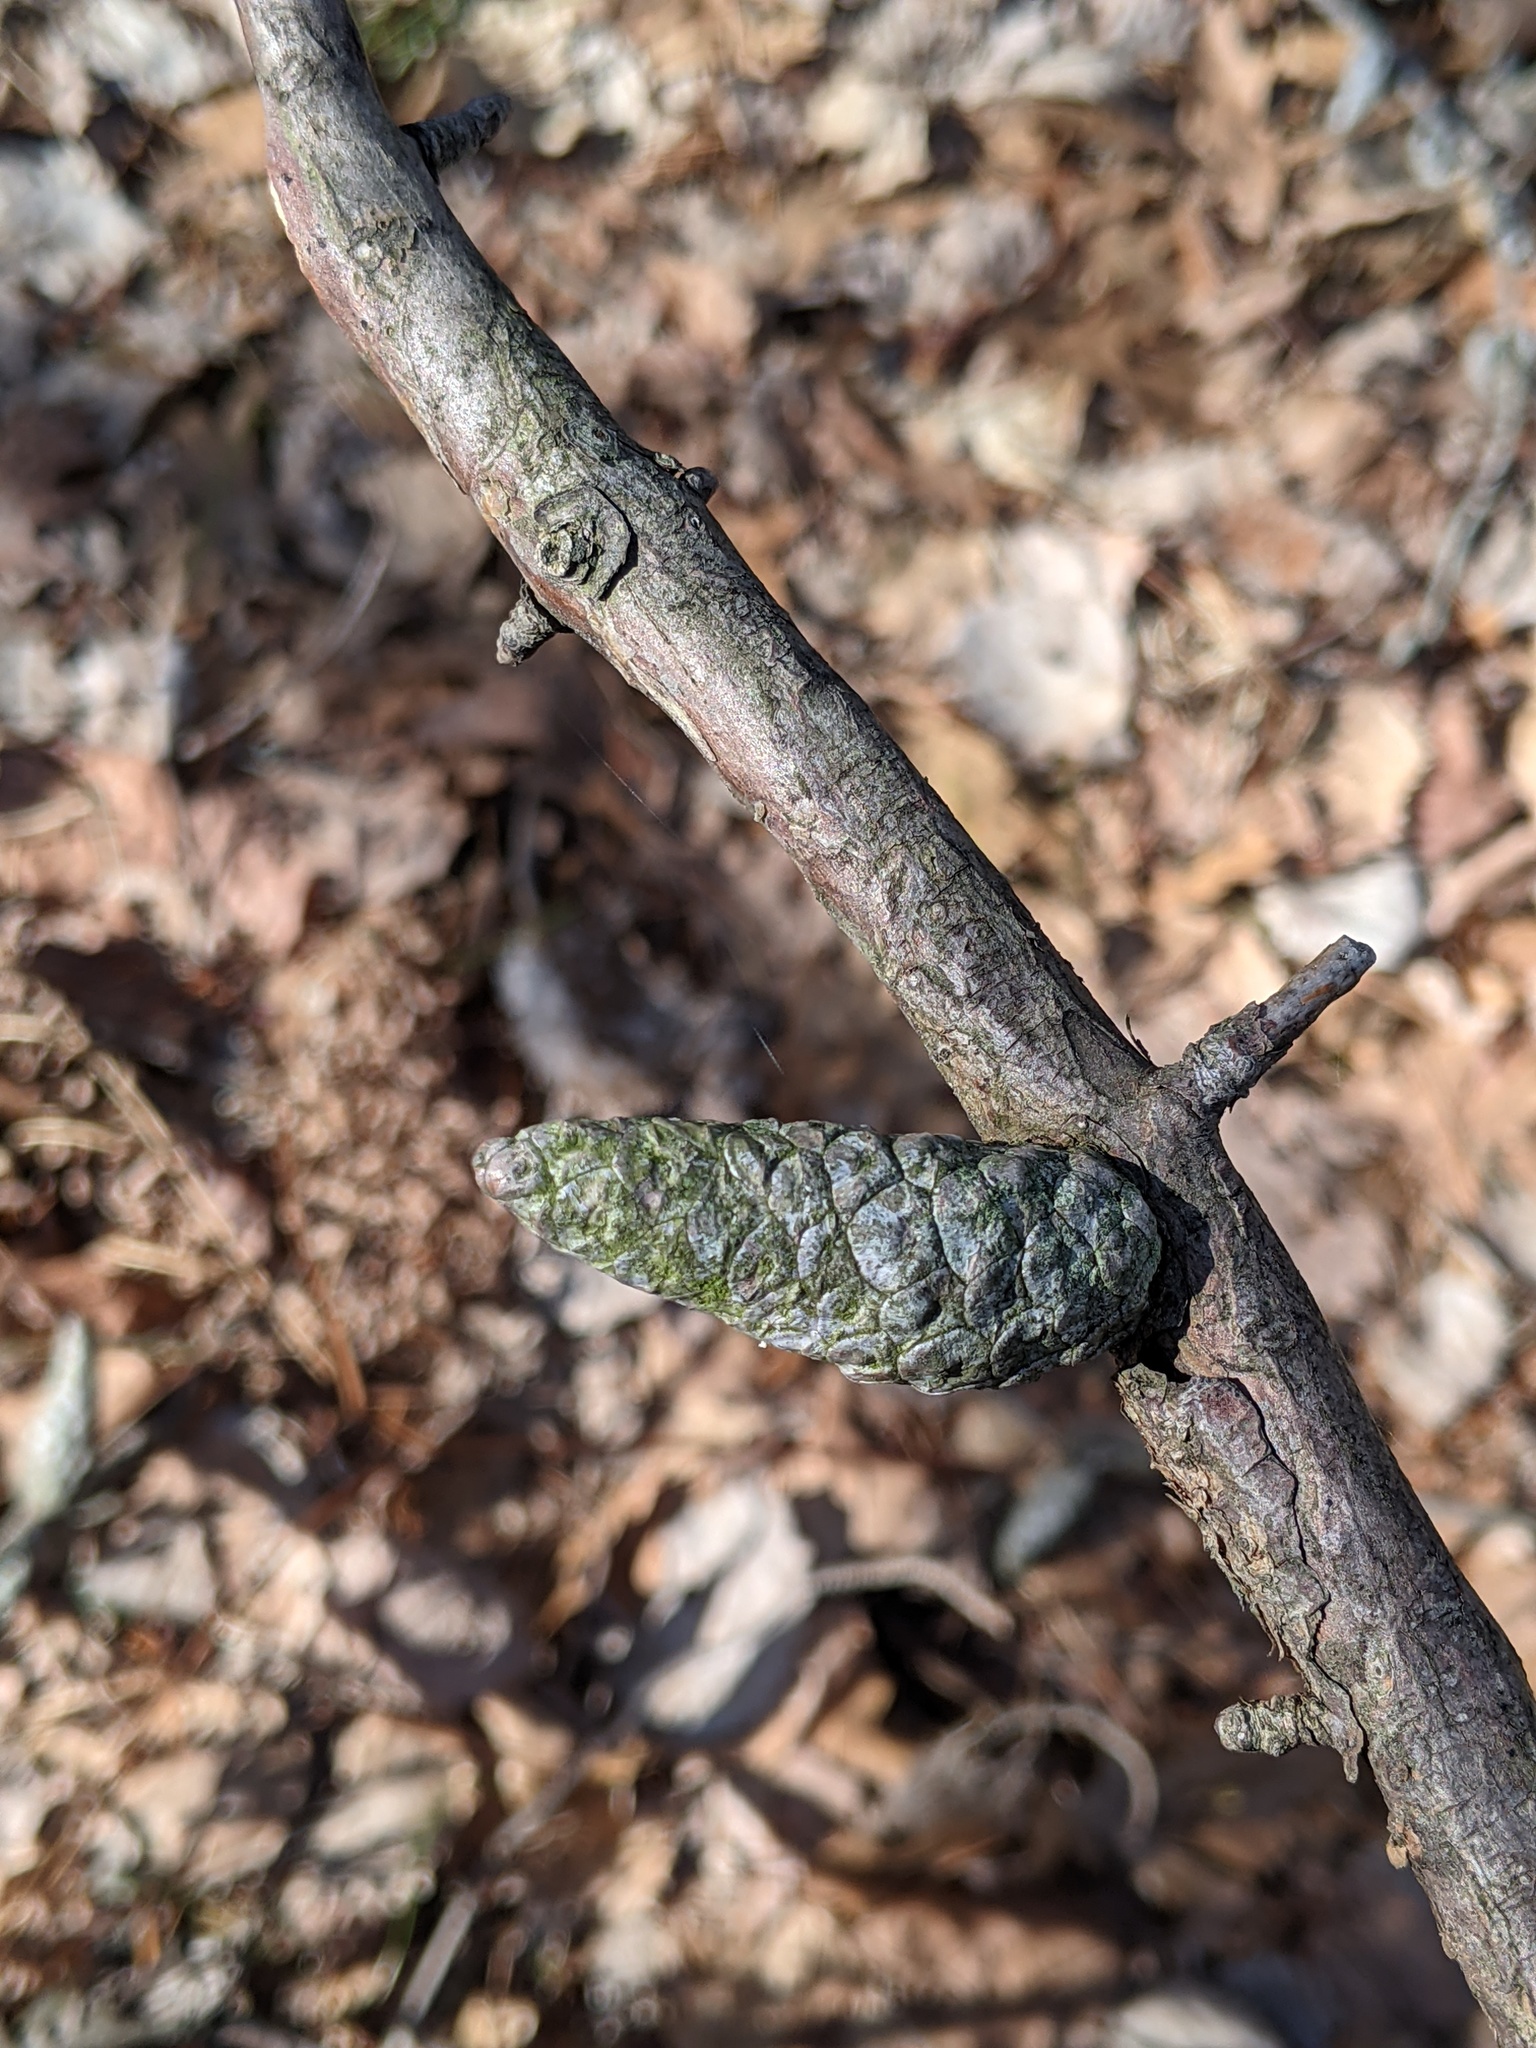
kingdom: Plantae
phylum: Tracheophyta
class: Pinopsida
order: Pinales
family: Pinaceae
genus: Pinus
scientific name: Pinus banksiana
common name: Jack pine
